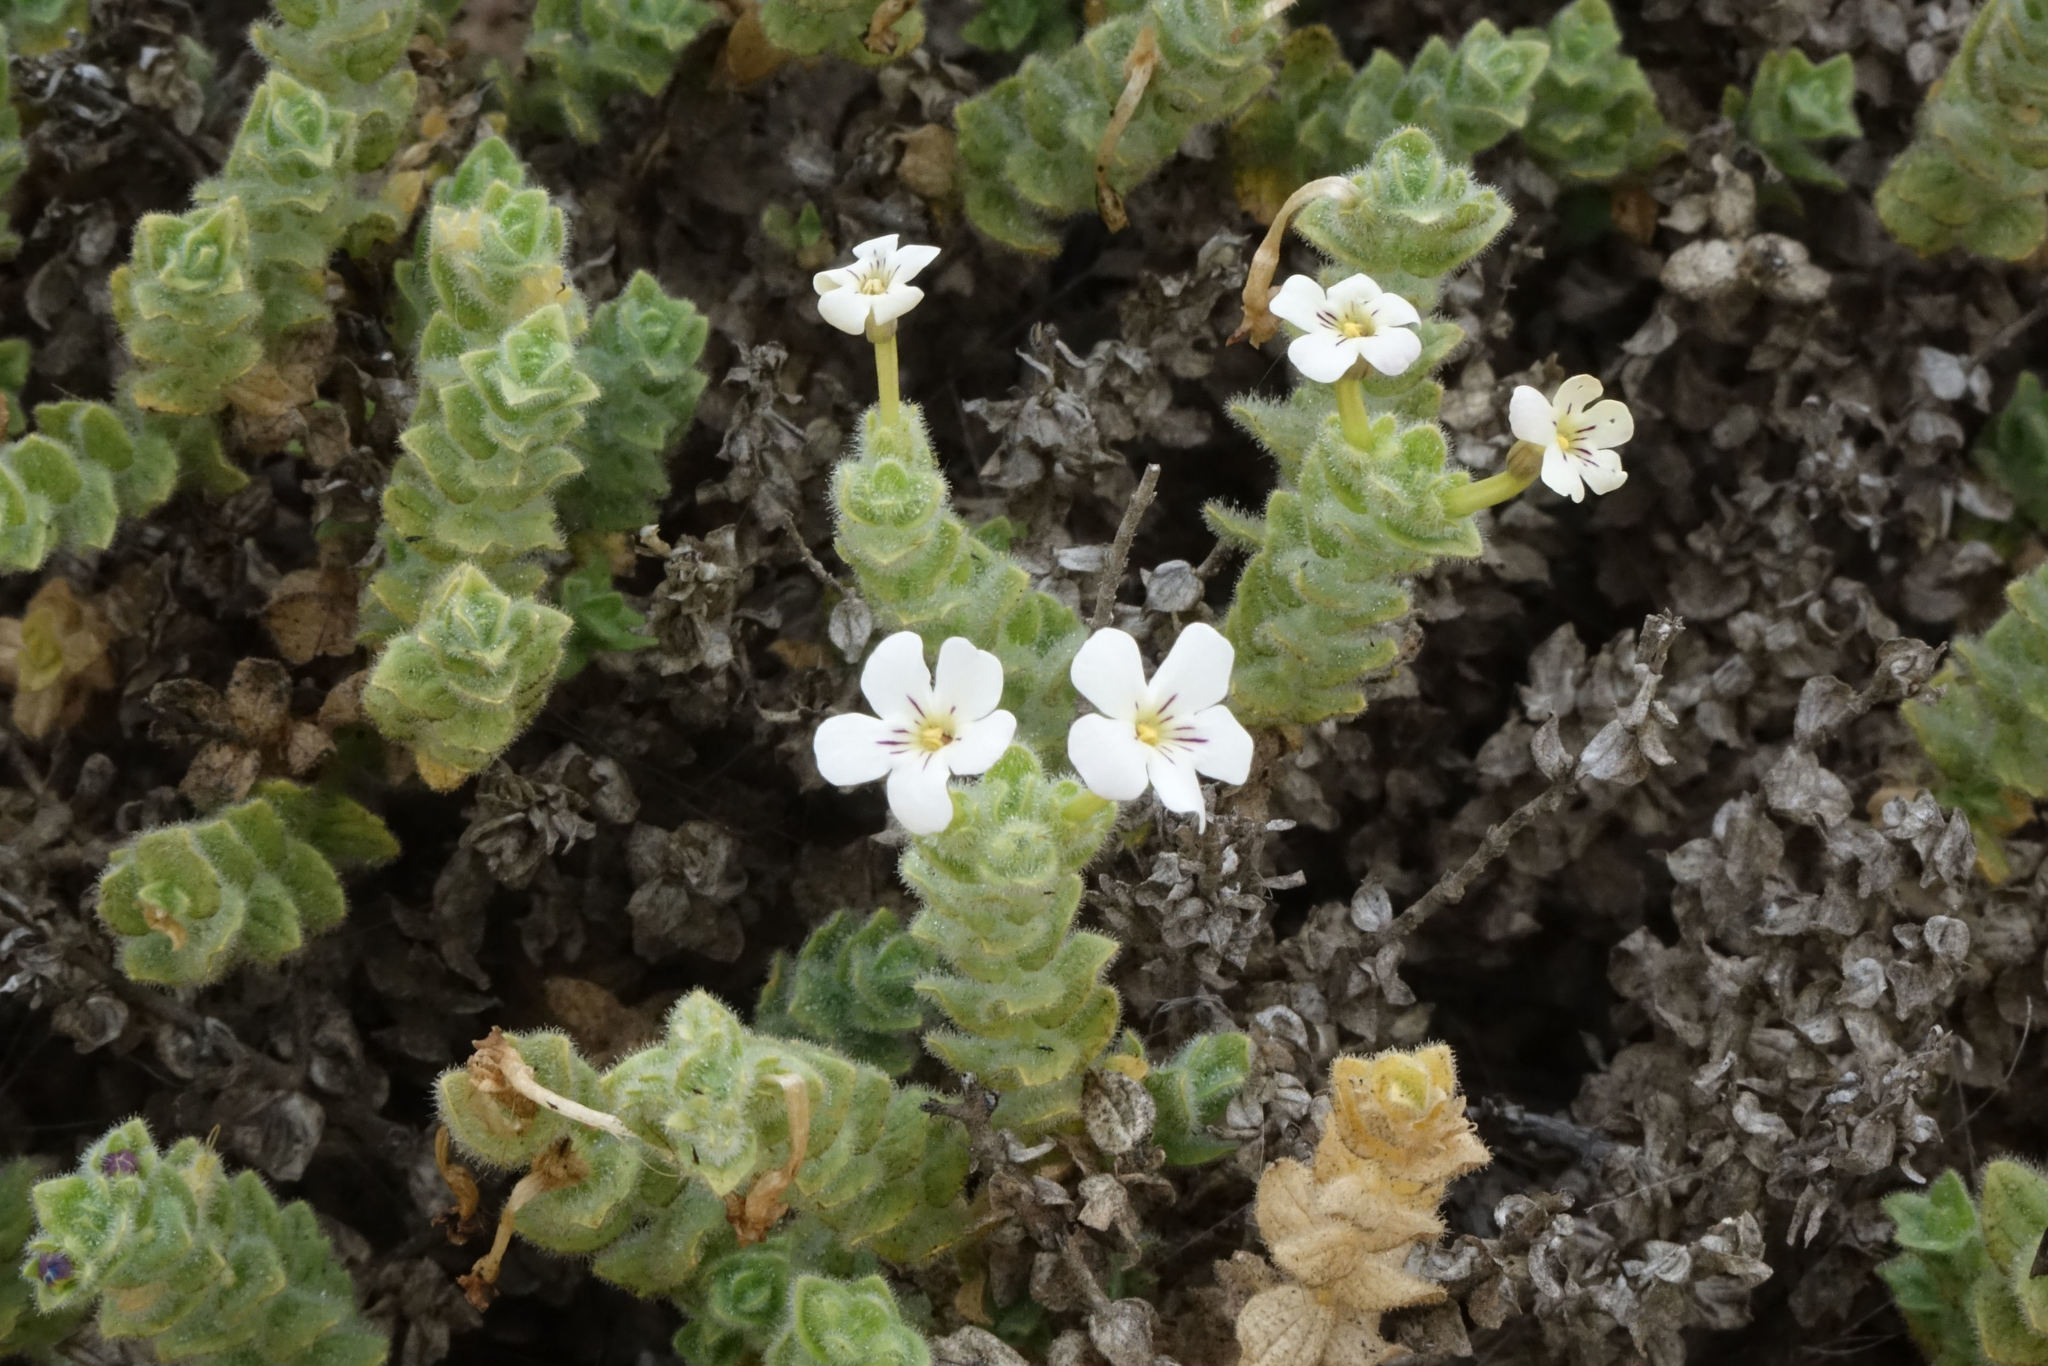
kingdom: Plantae
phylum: Tracheophyta
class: Magnoliopsida
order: Lamiales
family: Scrophulariaceae
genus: Jamesbrittenia
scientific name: Jamesbrittenia maxii
